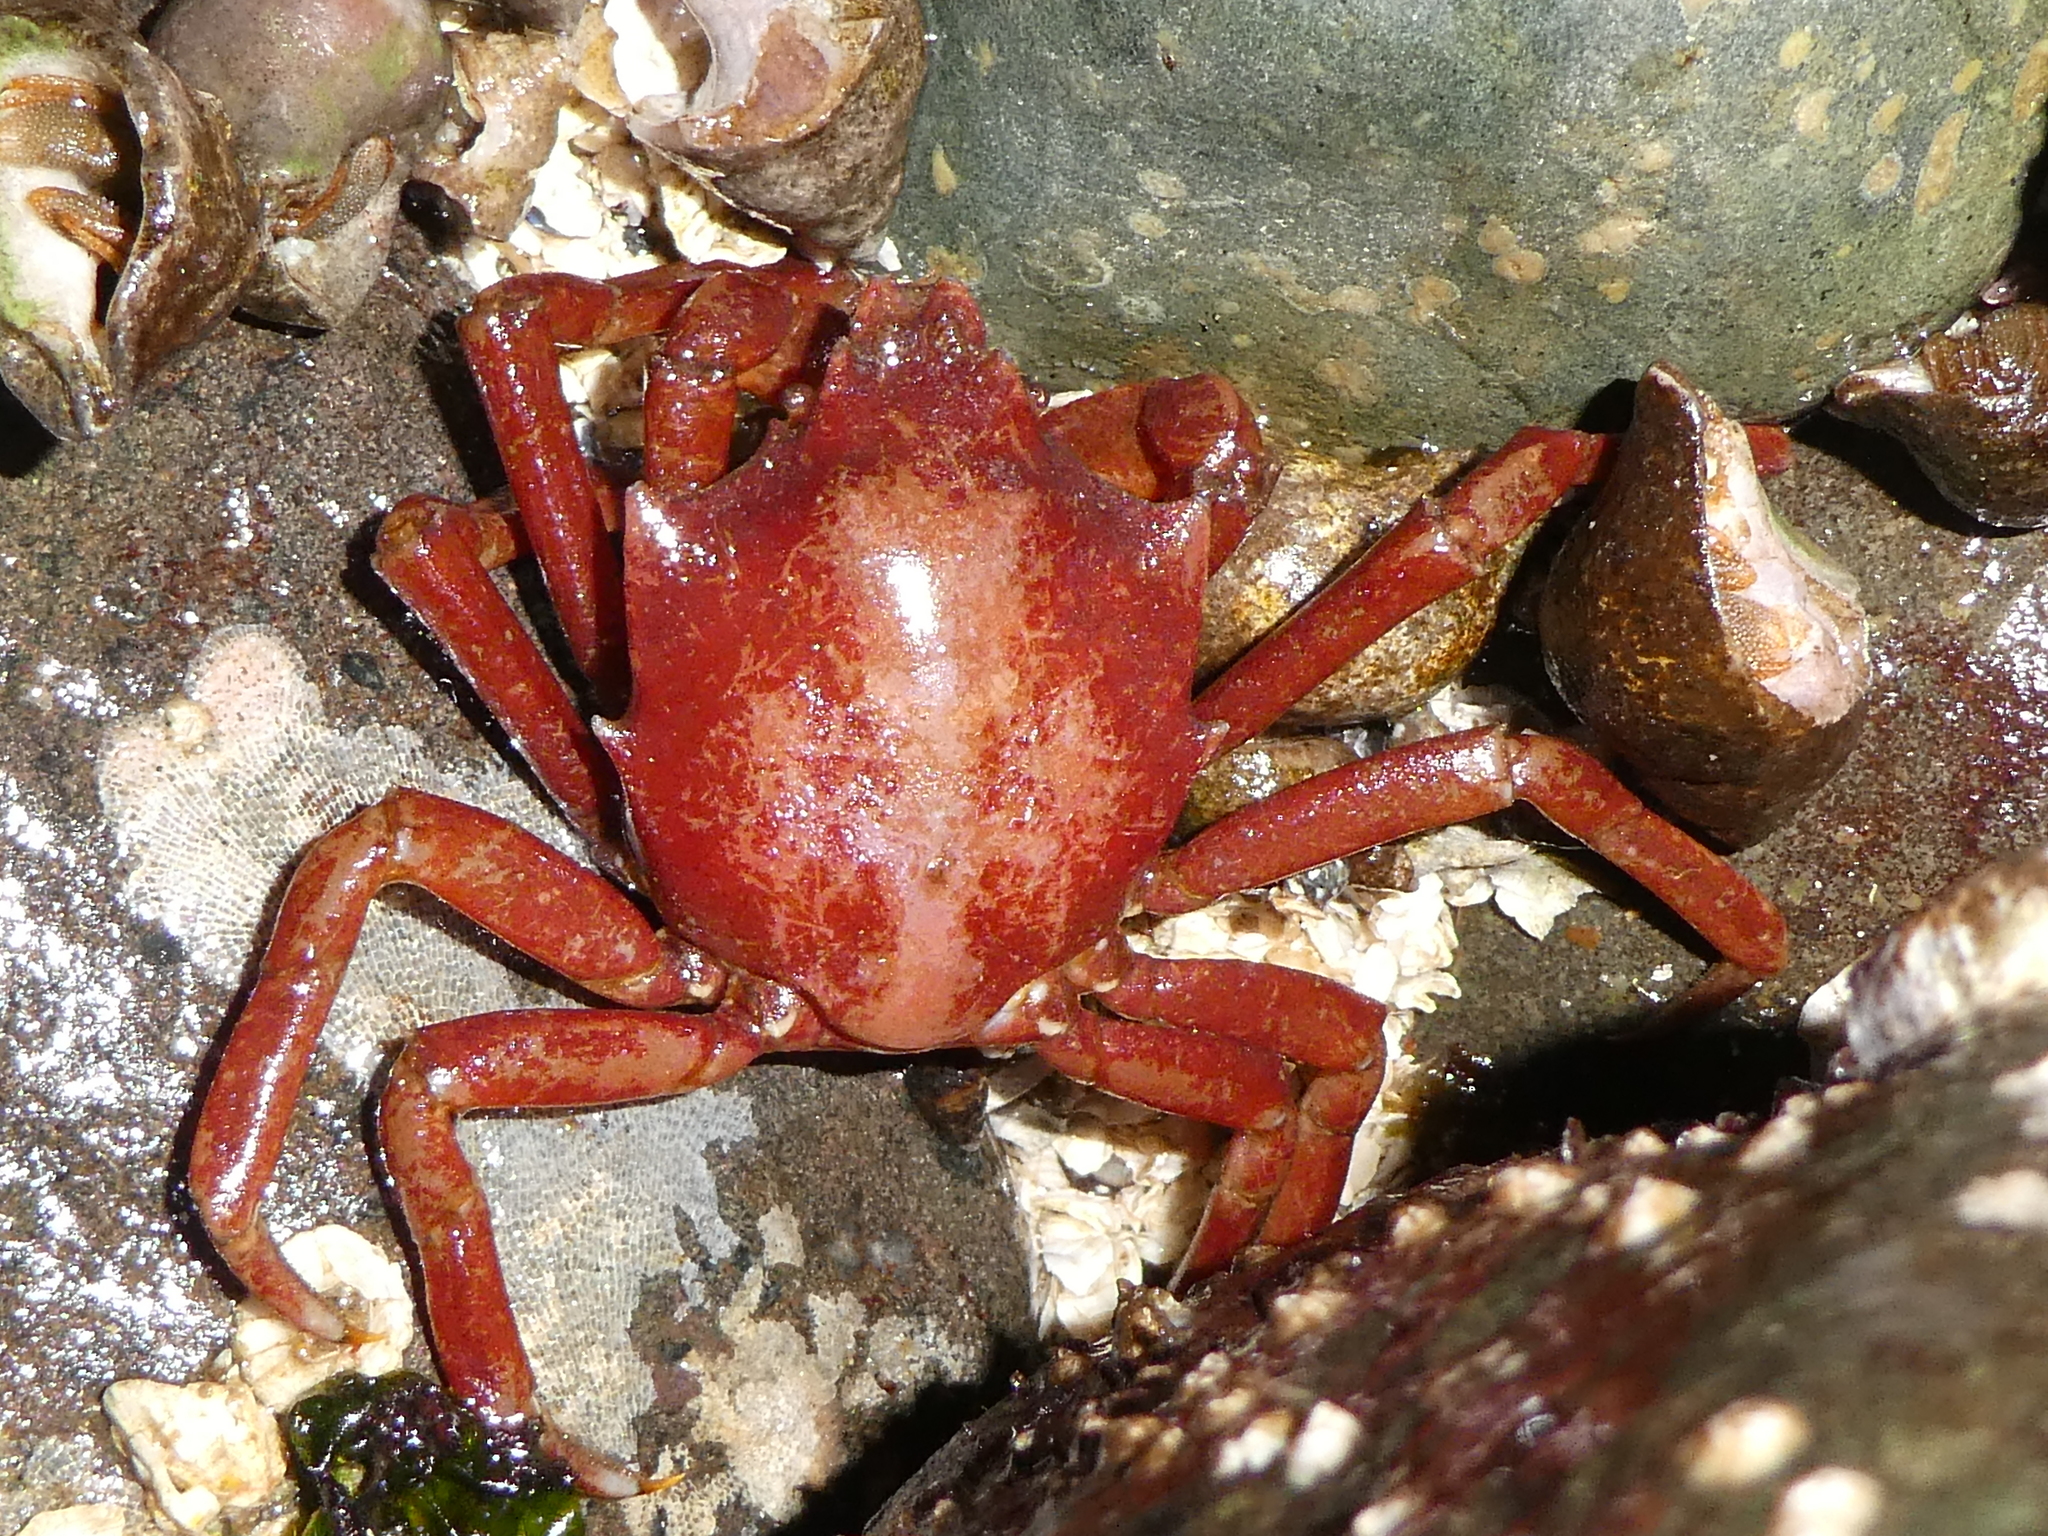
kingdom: Animalia
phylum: Arthropoda
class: Malacostraca
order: Decapoda
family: Epialtidae
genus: Pugettia
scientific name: Pugettia producta
